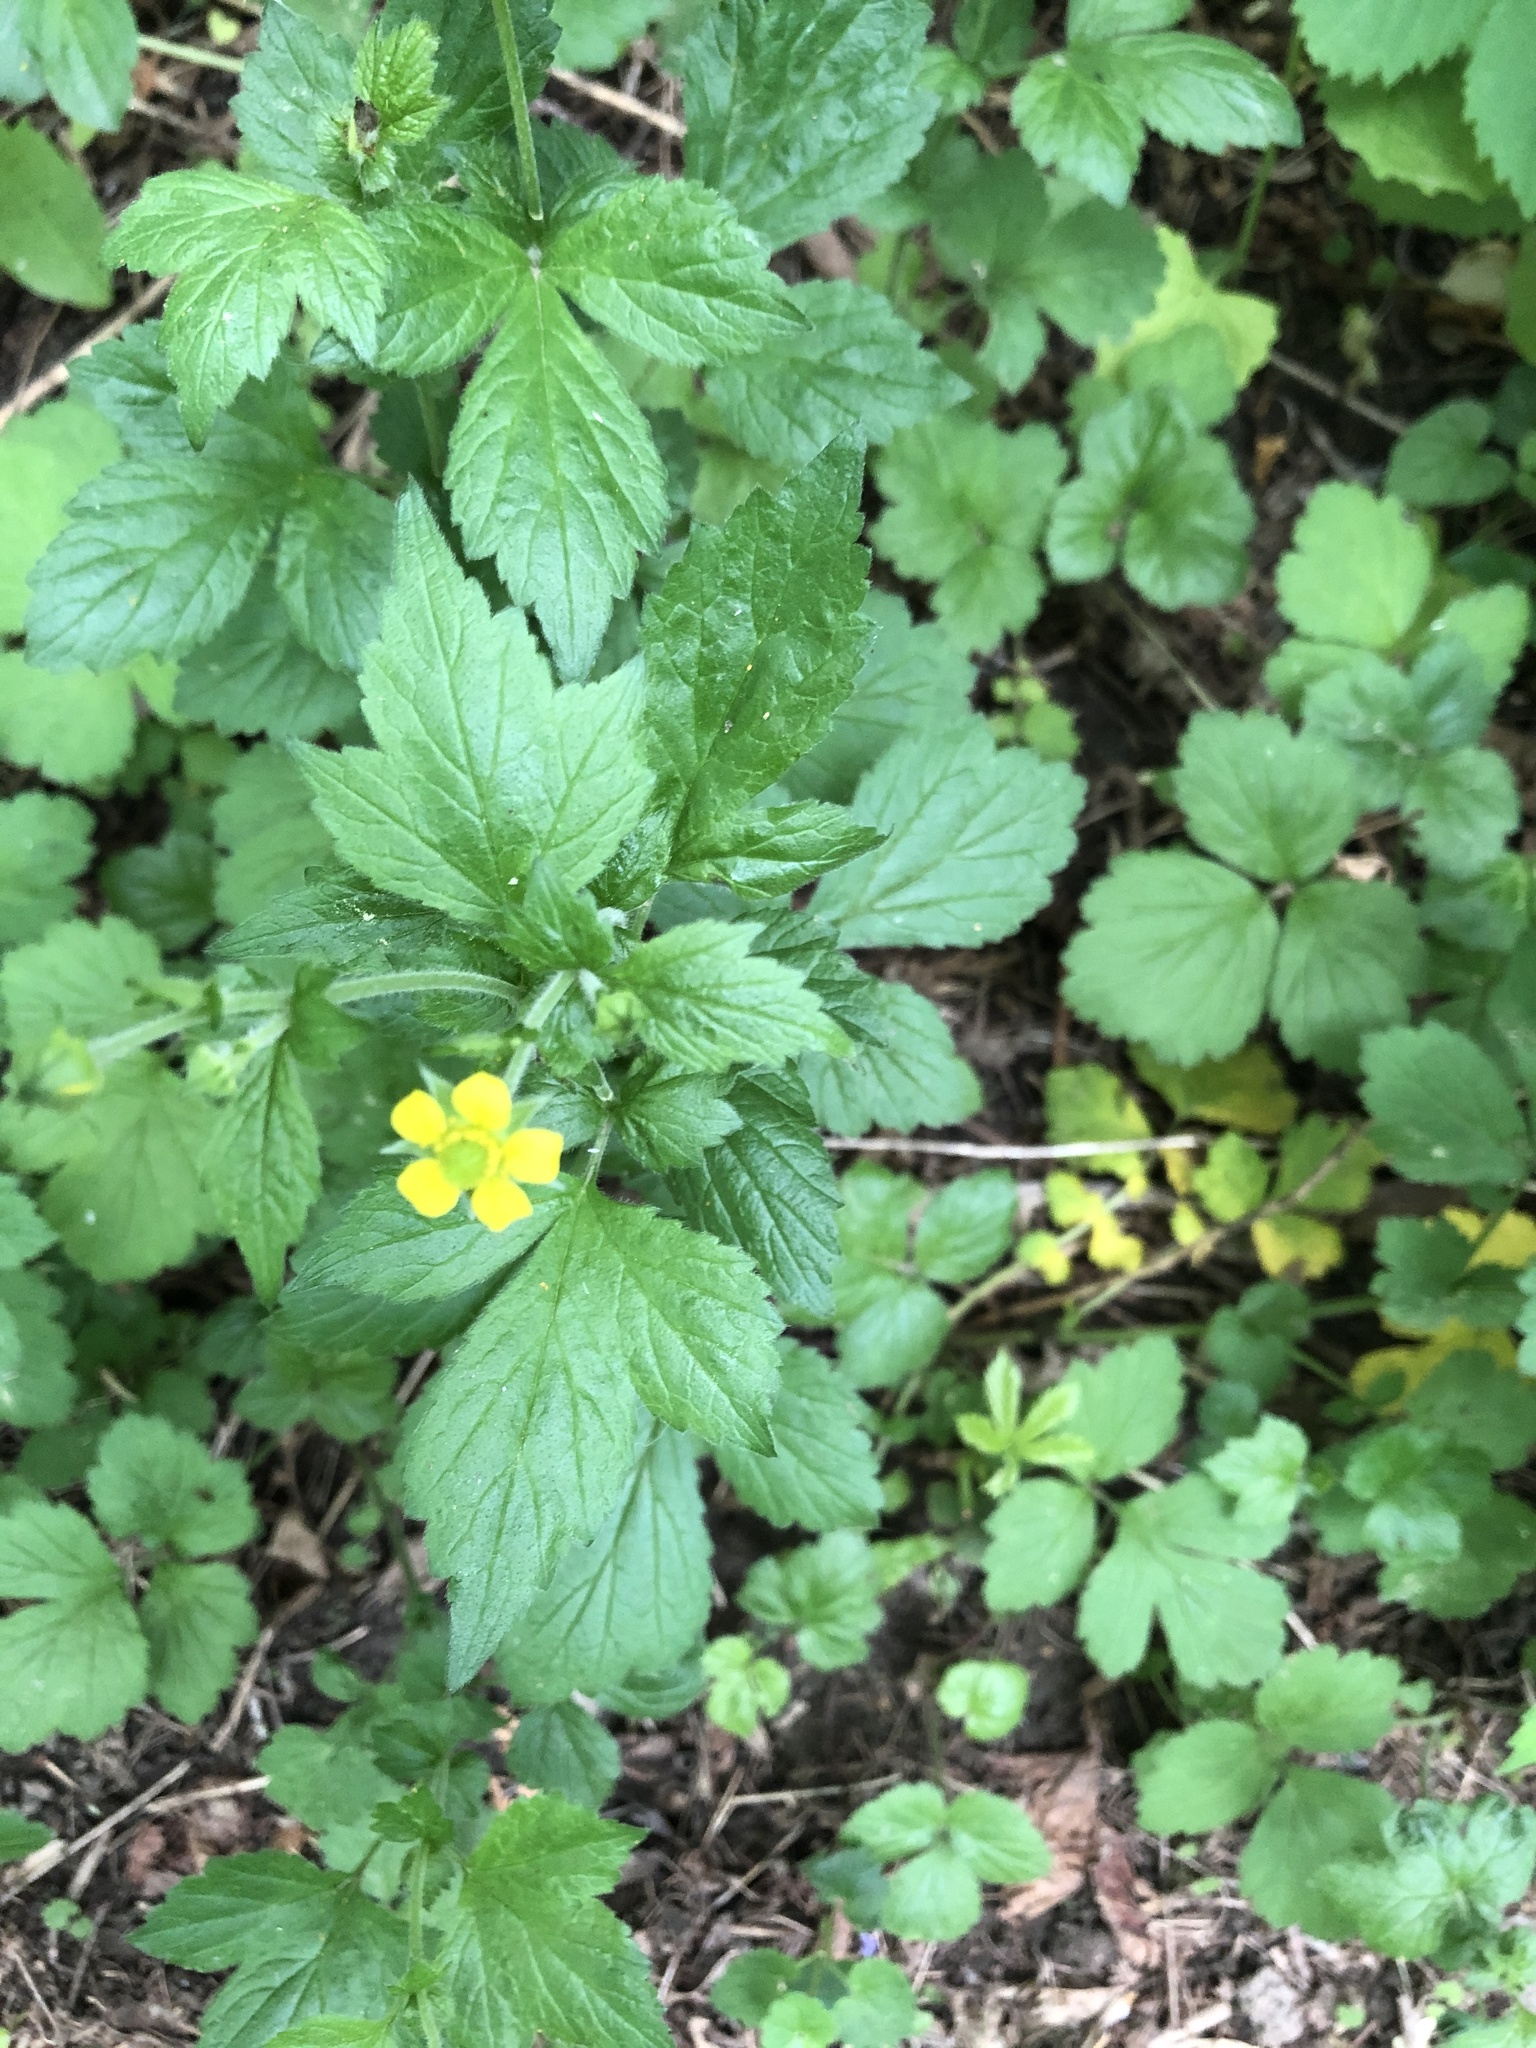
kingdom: Plantae
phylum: Tracheophyta
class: Magnoliopsida
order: Rosales
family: Rosaceae
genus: Geum
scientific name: Geum urbanum
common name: Wood avens
